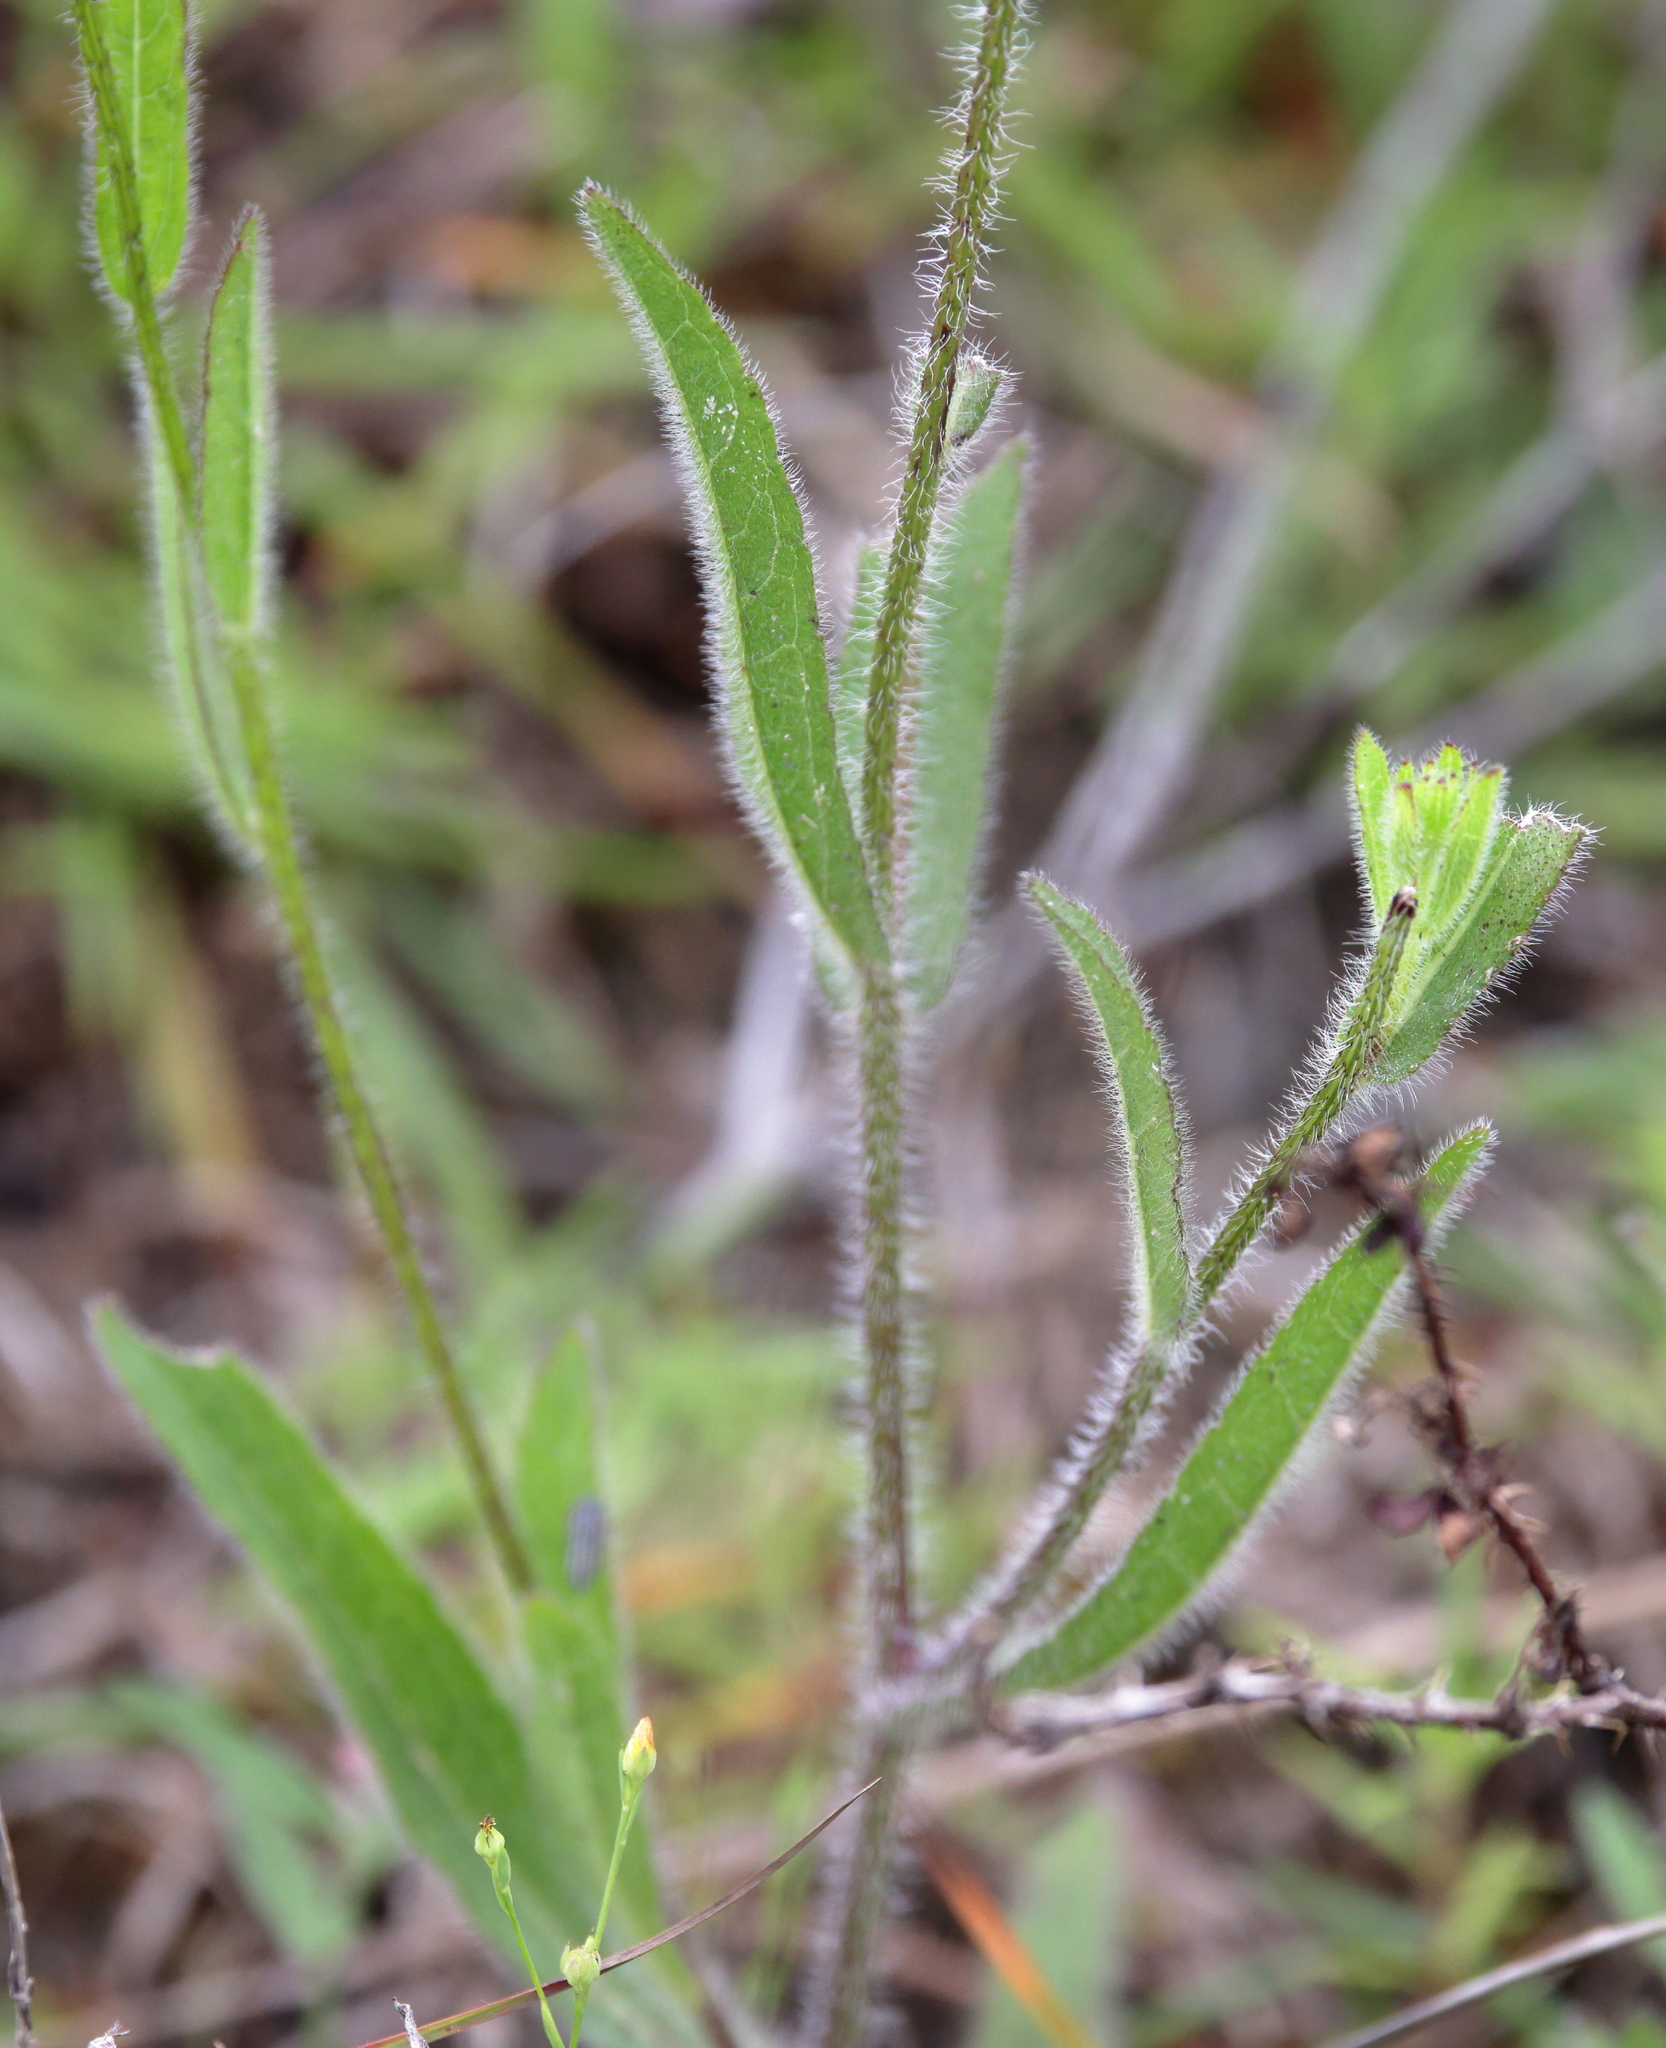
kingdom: Plantae
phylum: Tracheophyta
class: Magnoliopsida
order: Asterales
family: Asteraceae
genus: Rudbeckia
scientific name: Rudbeckia hirta
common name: Black-eyed-susan
